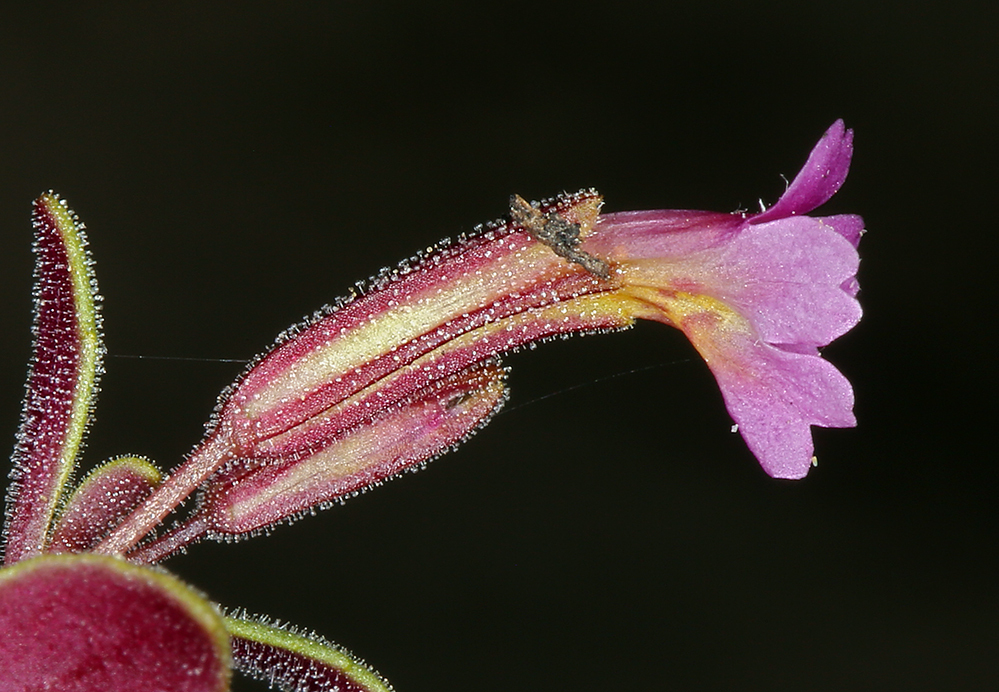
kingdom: Plantae
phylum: Tracheophyta
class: Magnoliopsida
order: Lamiales
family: Phrymaceae
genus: Erythranthe
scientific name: Erythranthe rubella
